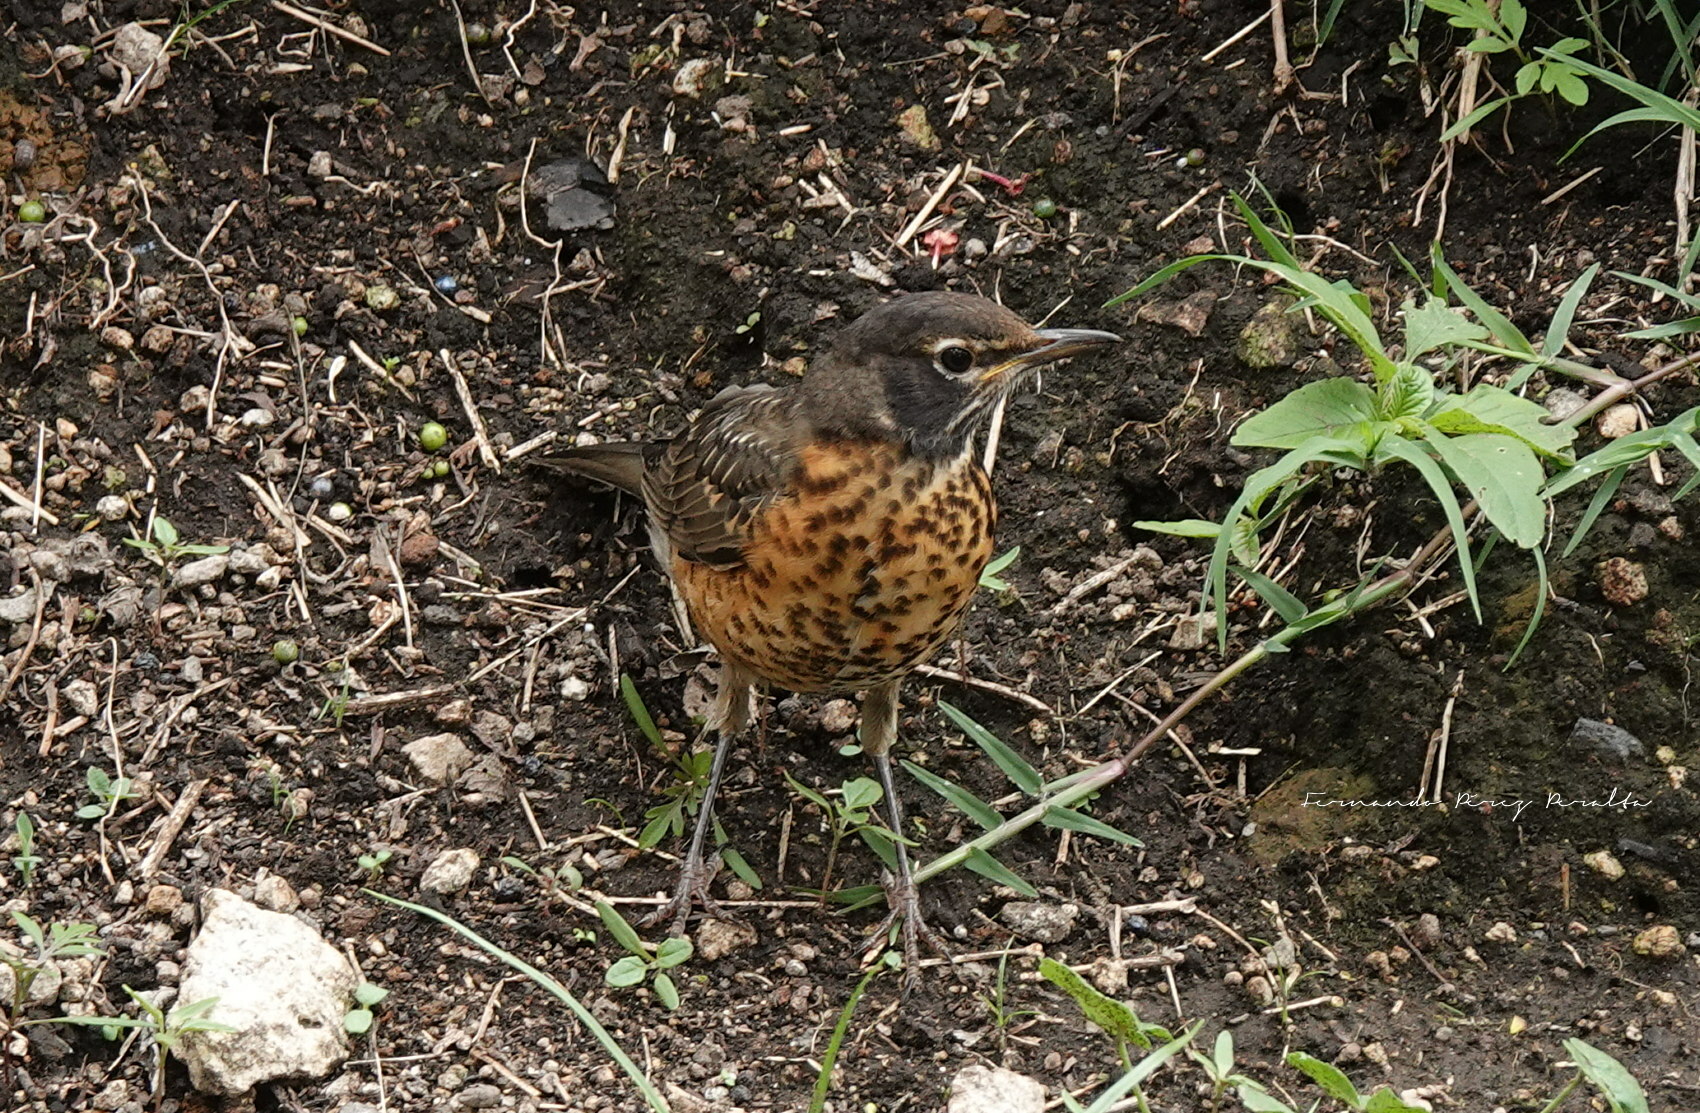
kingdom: Animalia
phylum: Chordata
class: Aves
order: Passeriformes
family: Turdidae
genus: Turdus
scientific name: Turdus migratorius
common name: American robin
